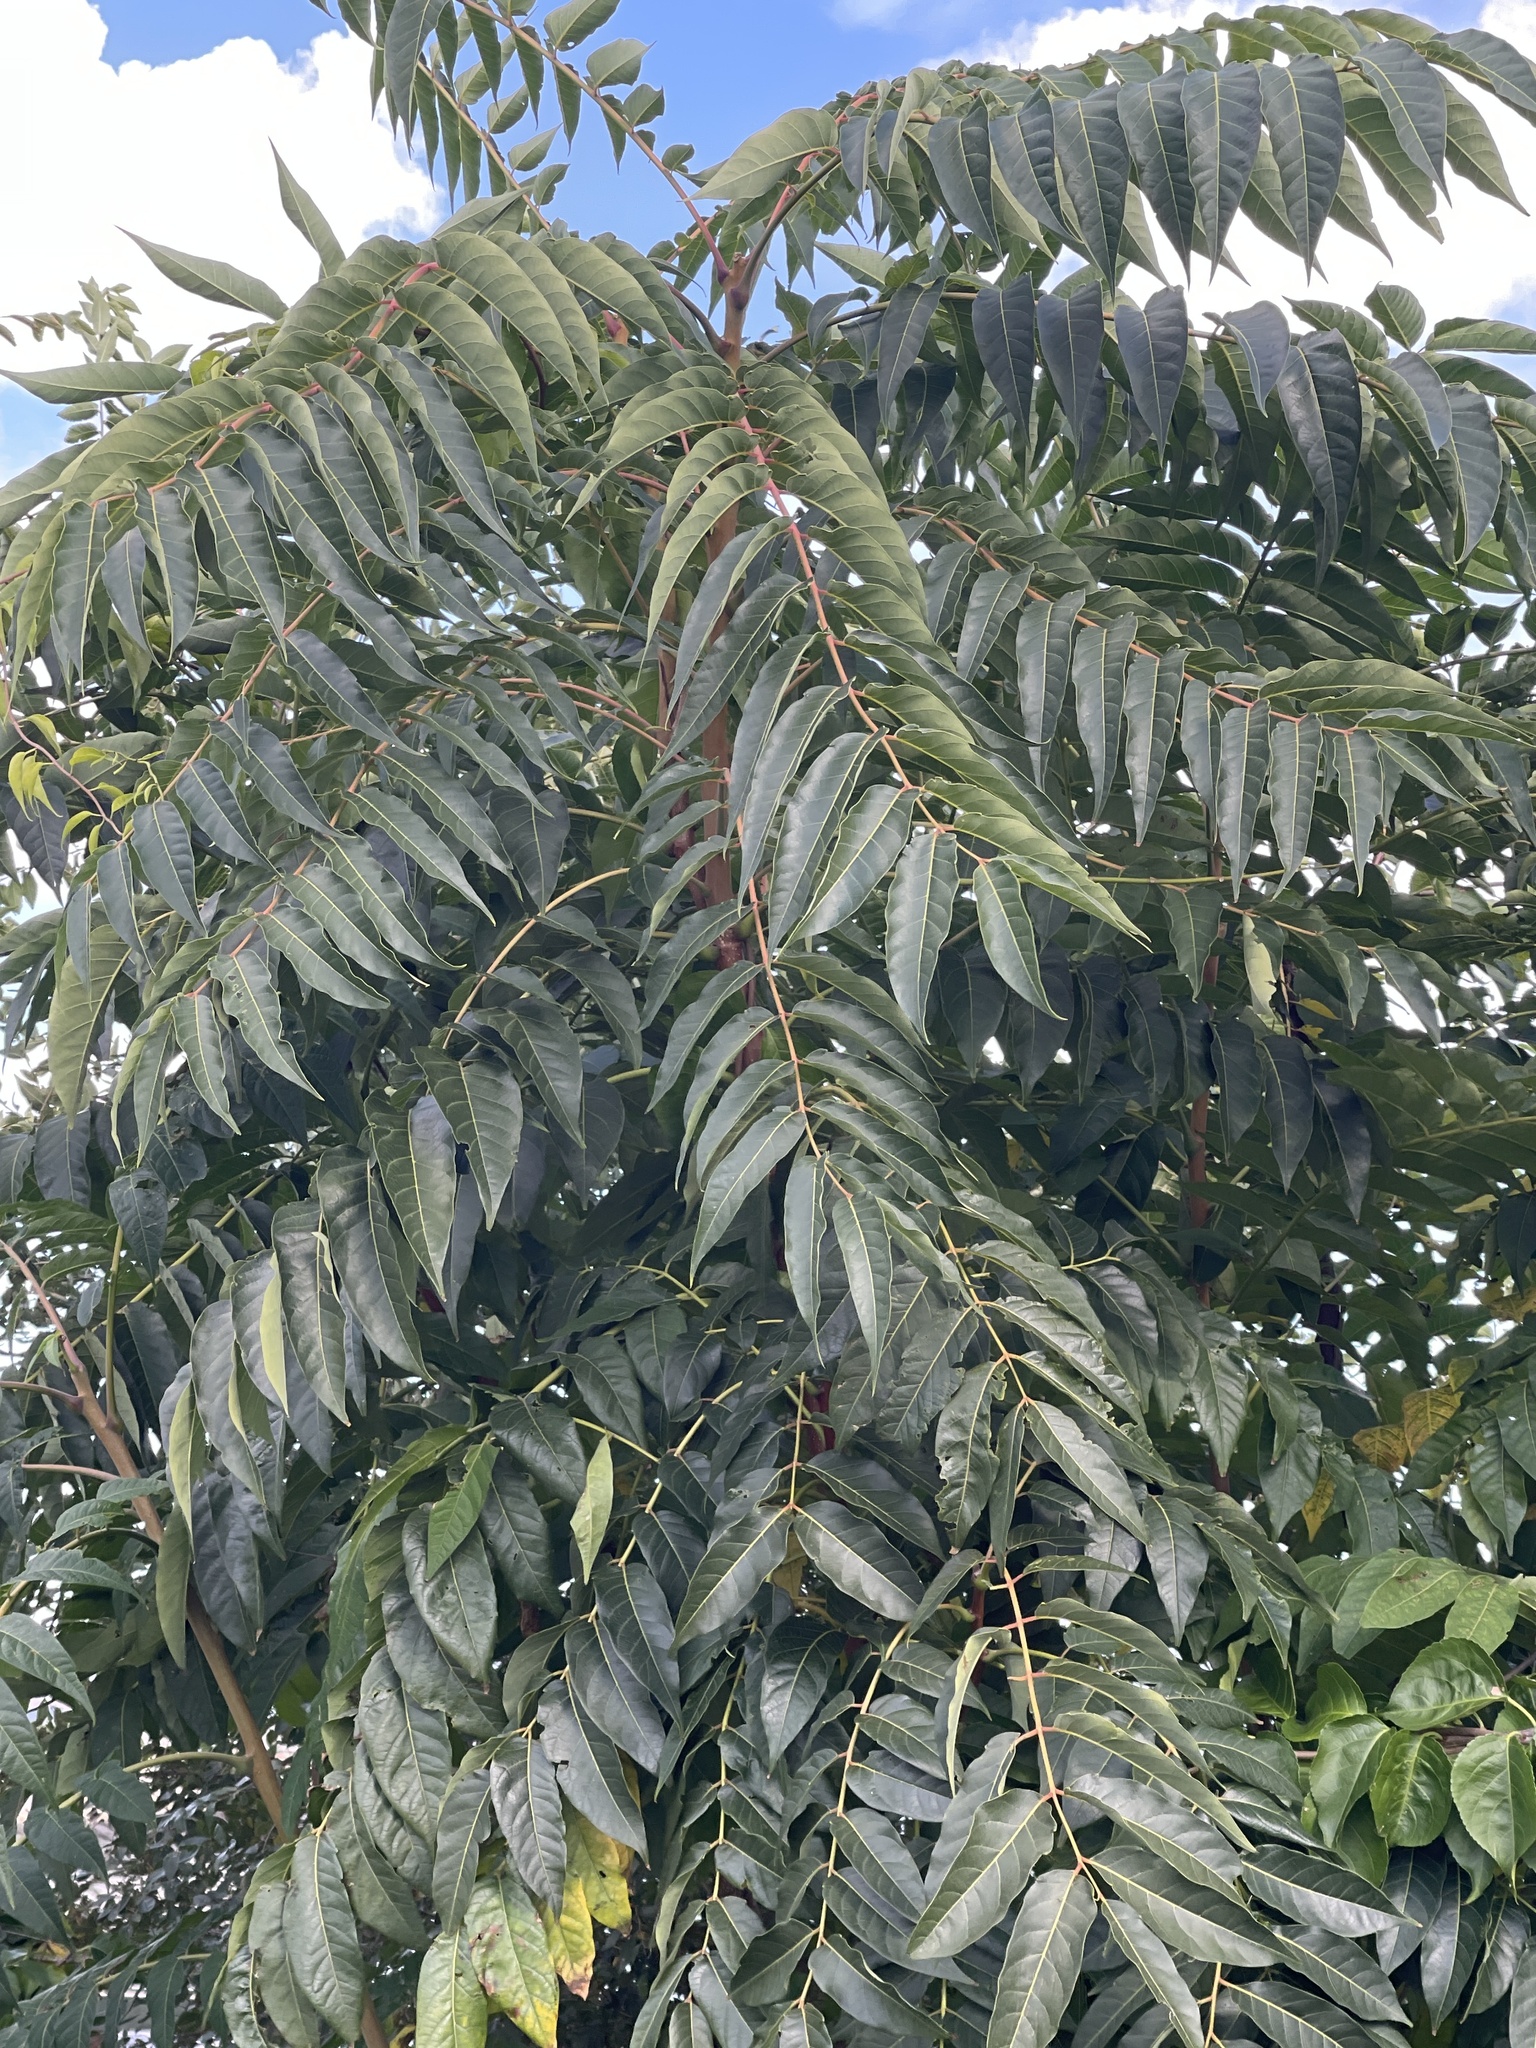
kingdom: Plantae
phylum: Tracheophyta
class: Magnoliopsida
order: Sapindales
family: Simaroubaceae
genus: Ailanthus
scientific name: Ailanthus altissima
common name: Tree-of-heaven
